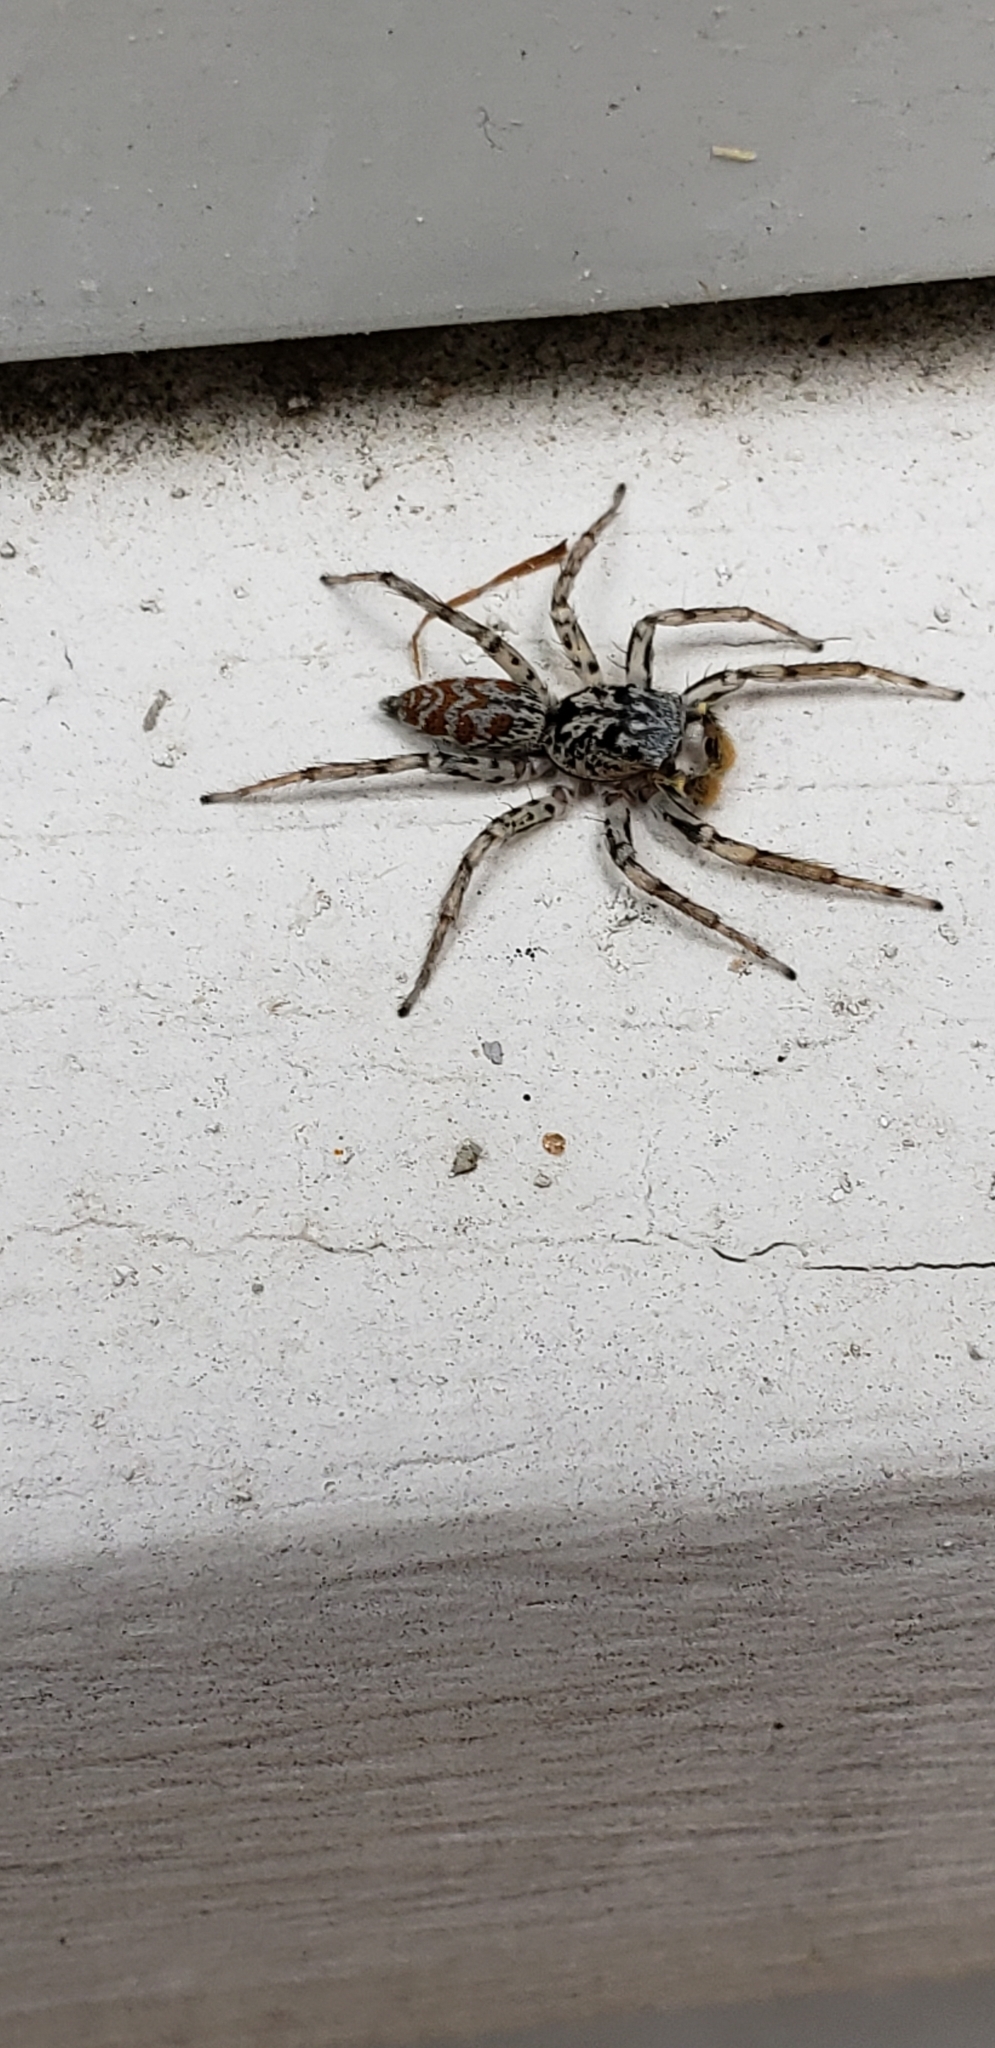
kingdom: Animalia
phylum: Arthropoda
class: Arachnida
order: Araneae
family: Salticidae
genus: Maevia
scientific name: Maevia inclemens
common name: Dimorphic jumper
